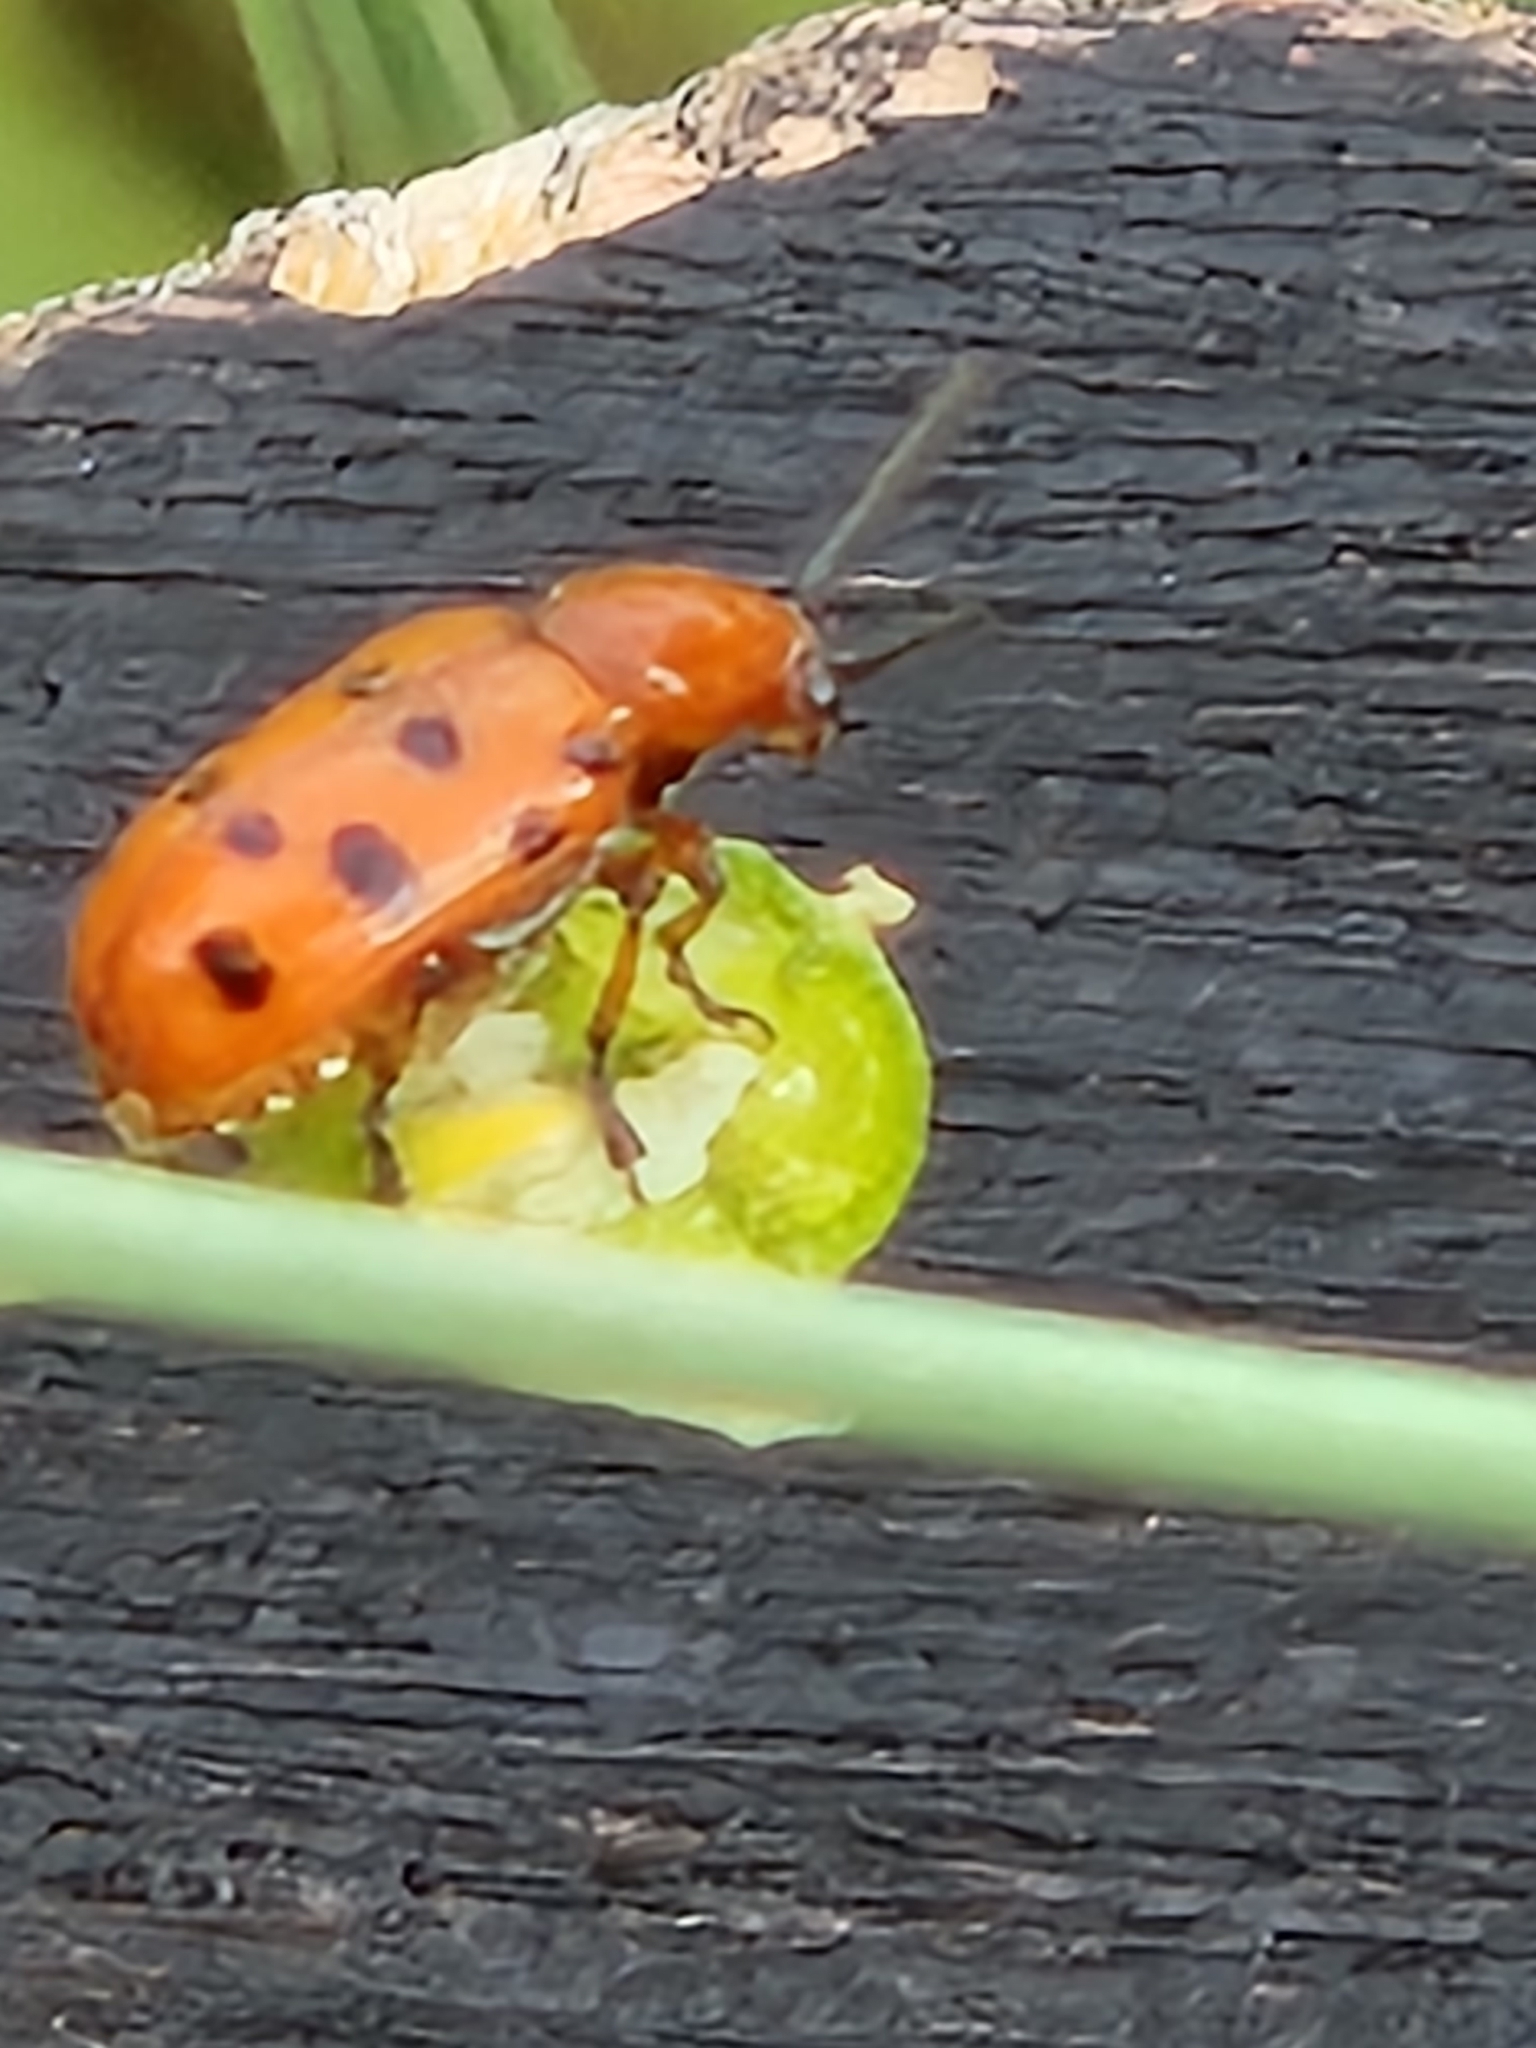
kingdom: Animalia
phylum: Arthropoda
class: Insecta
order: Coleoptera
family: Chrysomelidae
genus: Crioceris
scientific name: Crioceris duodecimpunctata
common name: Twelve-spotted asparagus beetle
